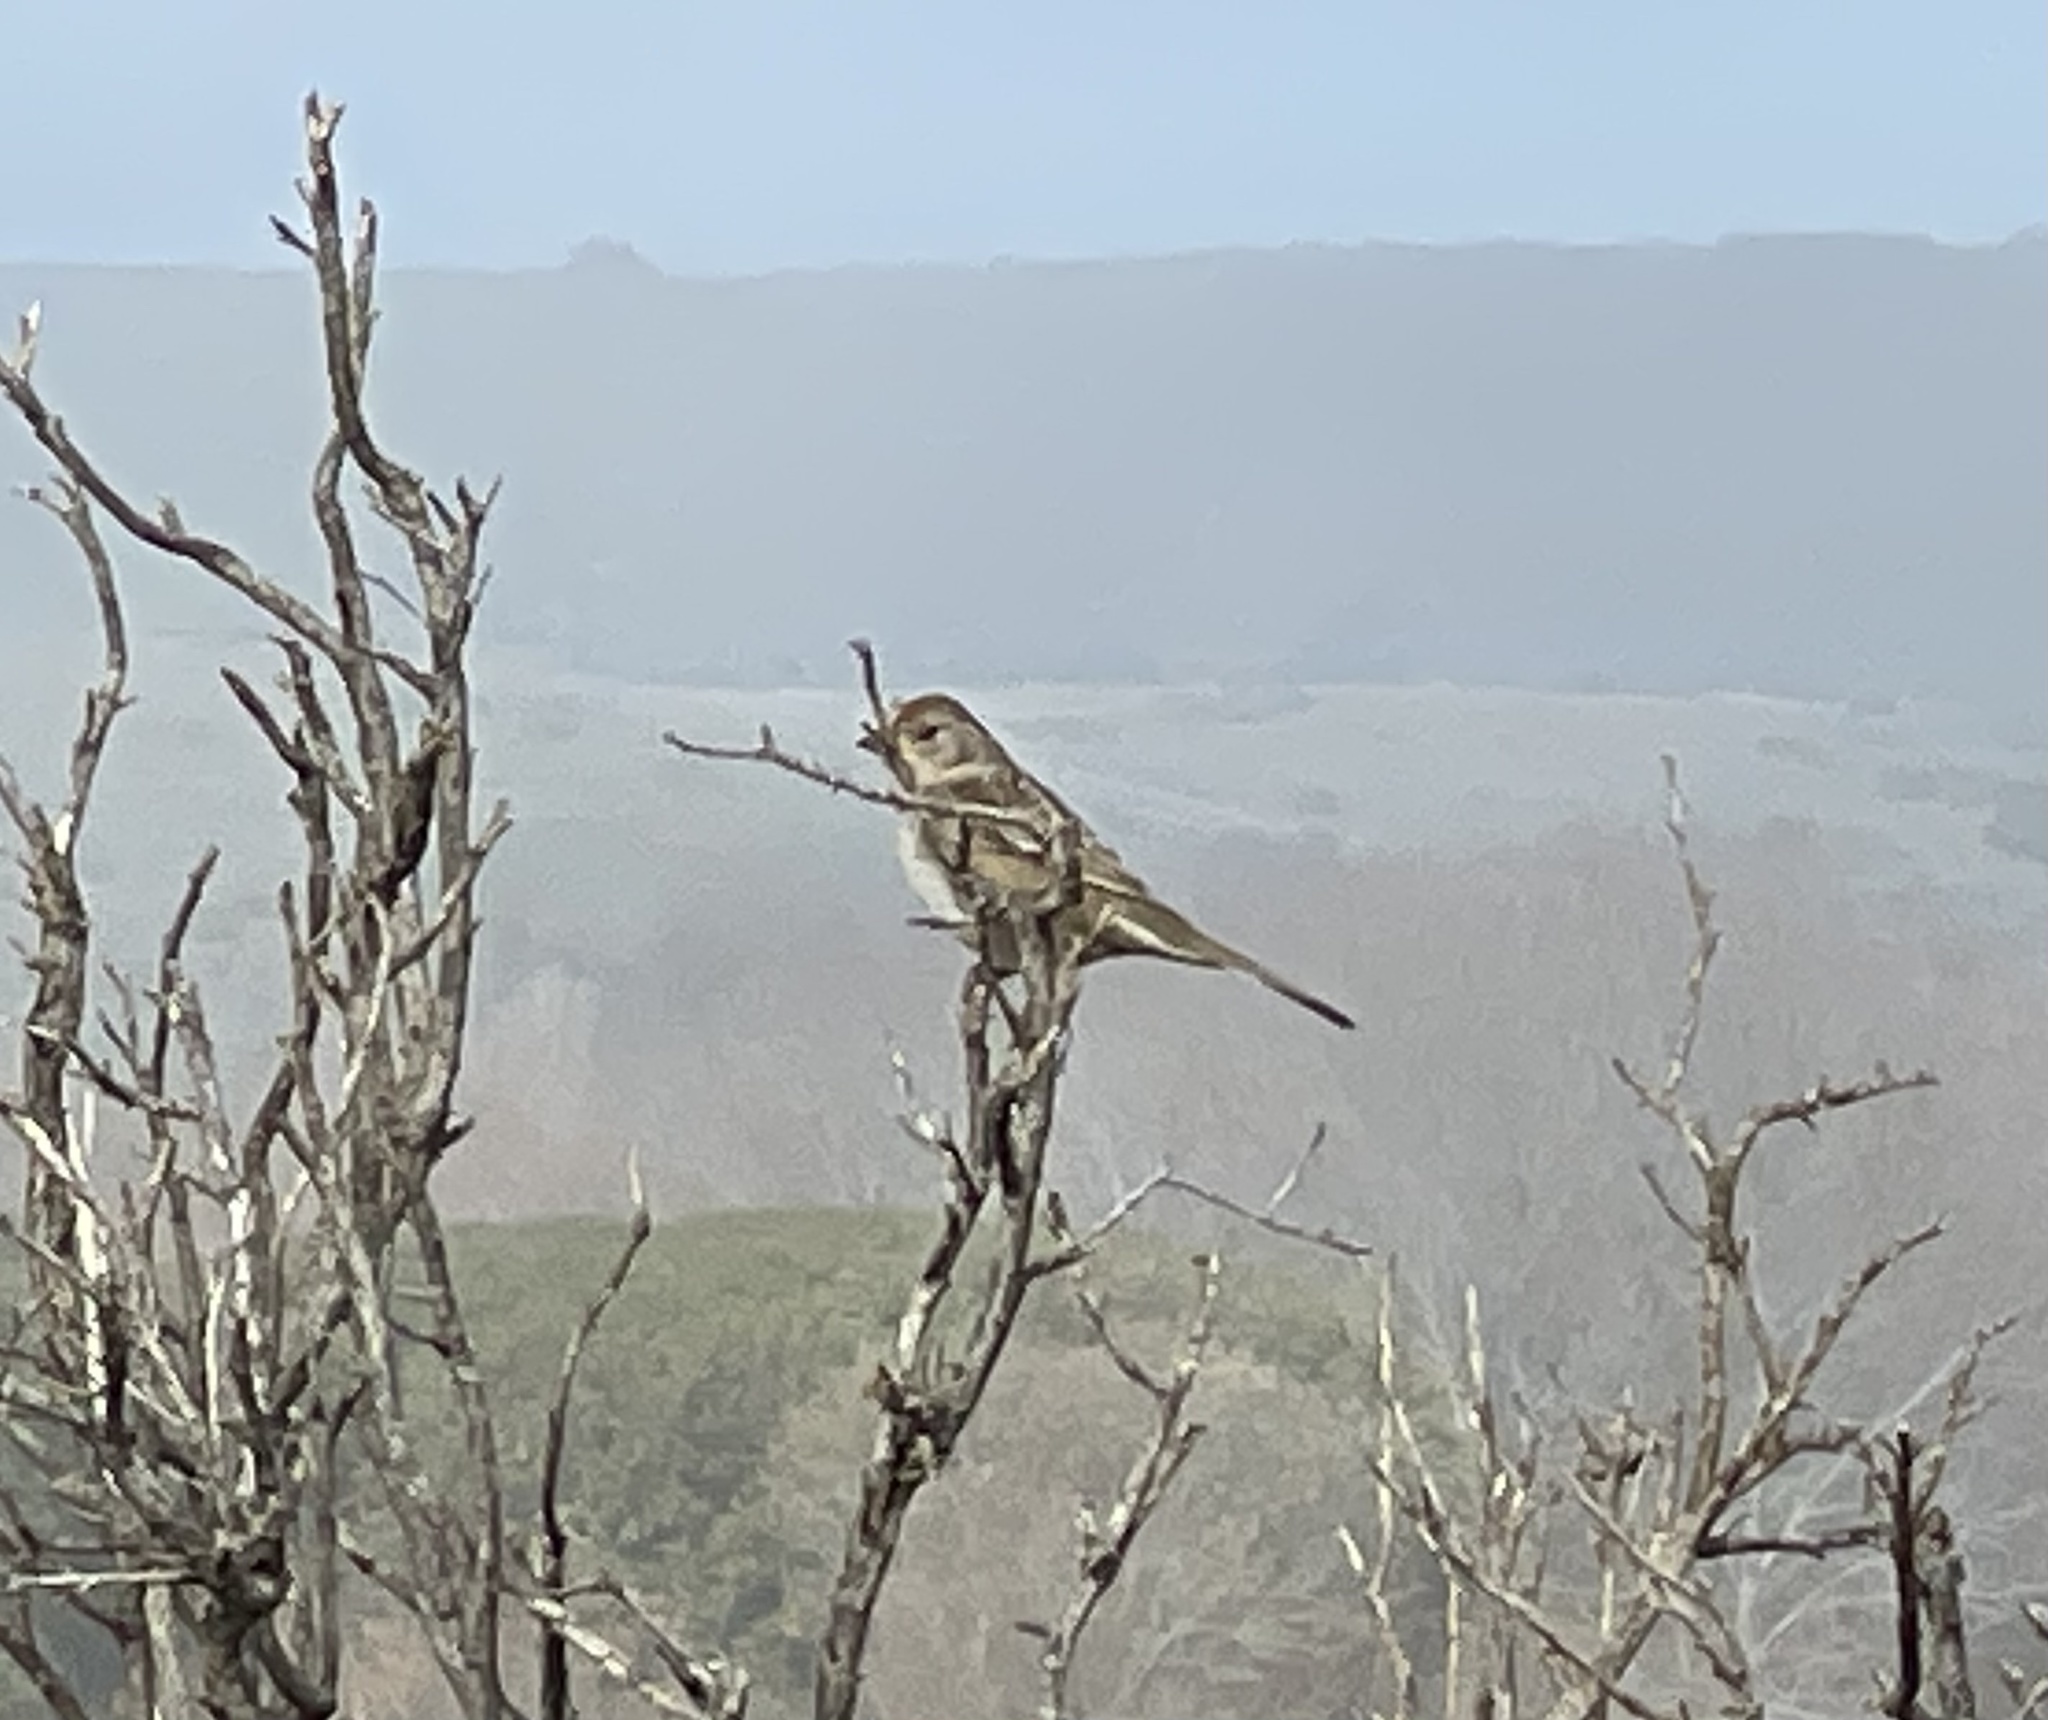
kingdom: Animalia
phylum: Chordata
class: Aves
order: Passeriformes
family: Passerellidae
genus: Zonotrichia
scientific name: Zonotrichia leucophrys
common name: White-crowned sparrow
